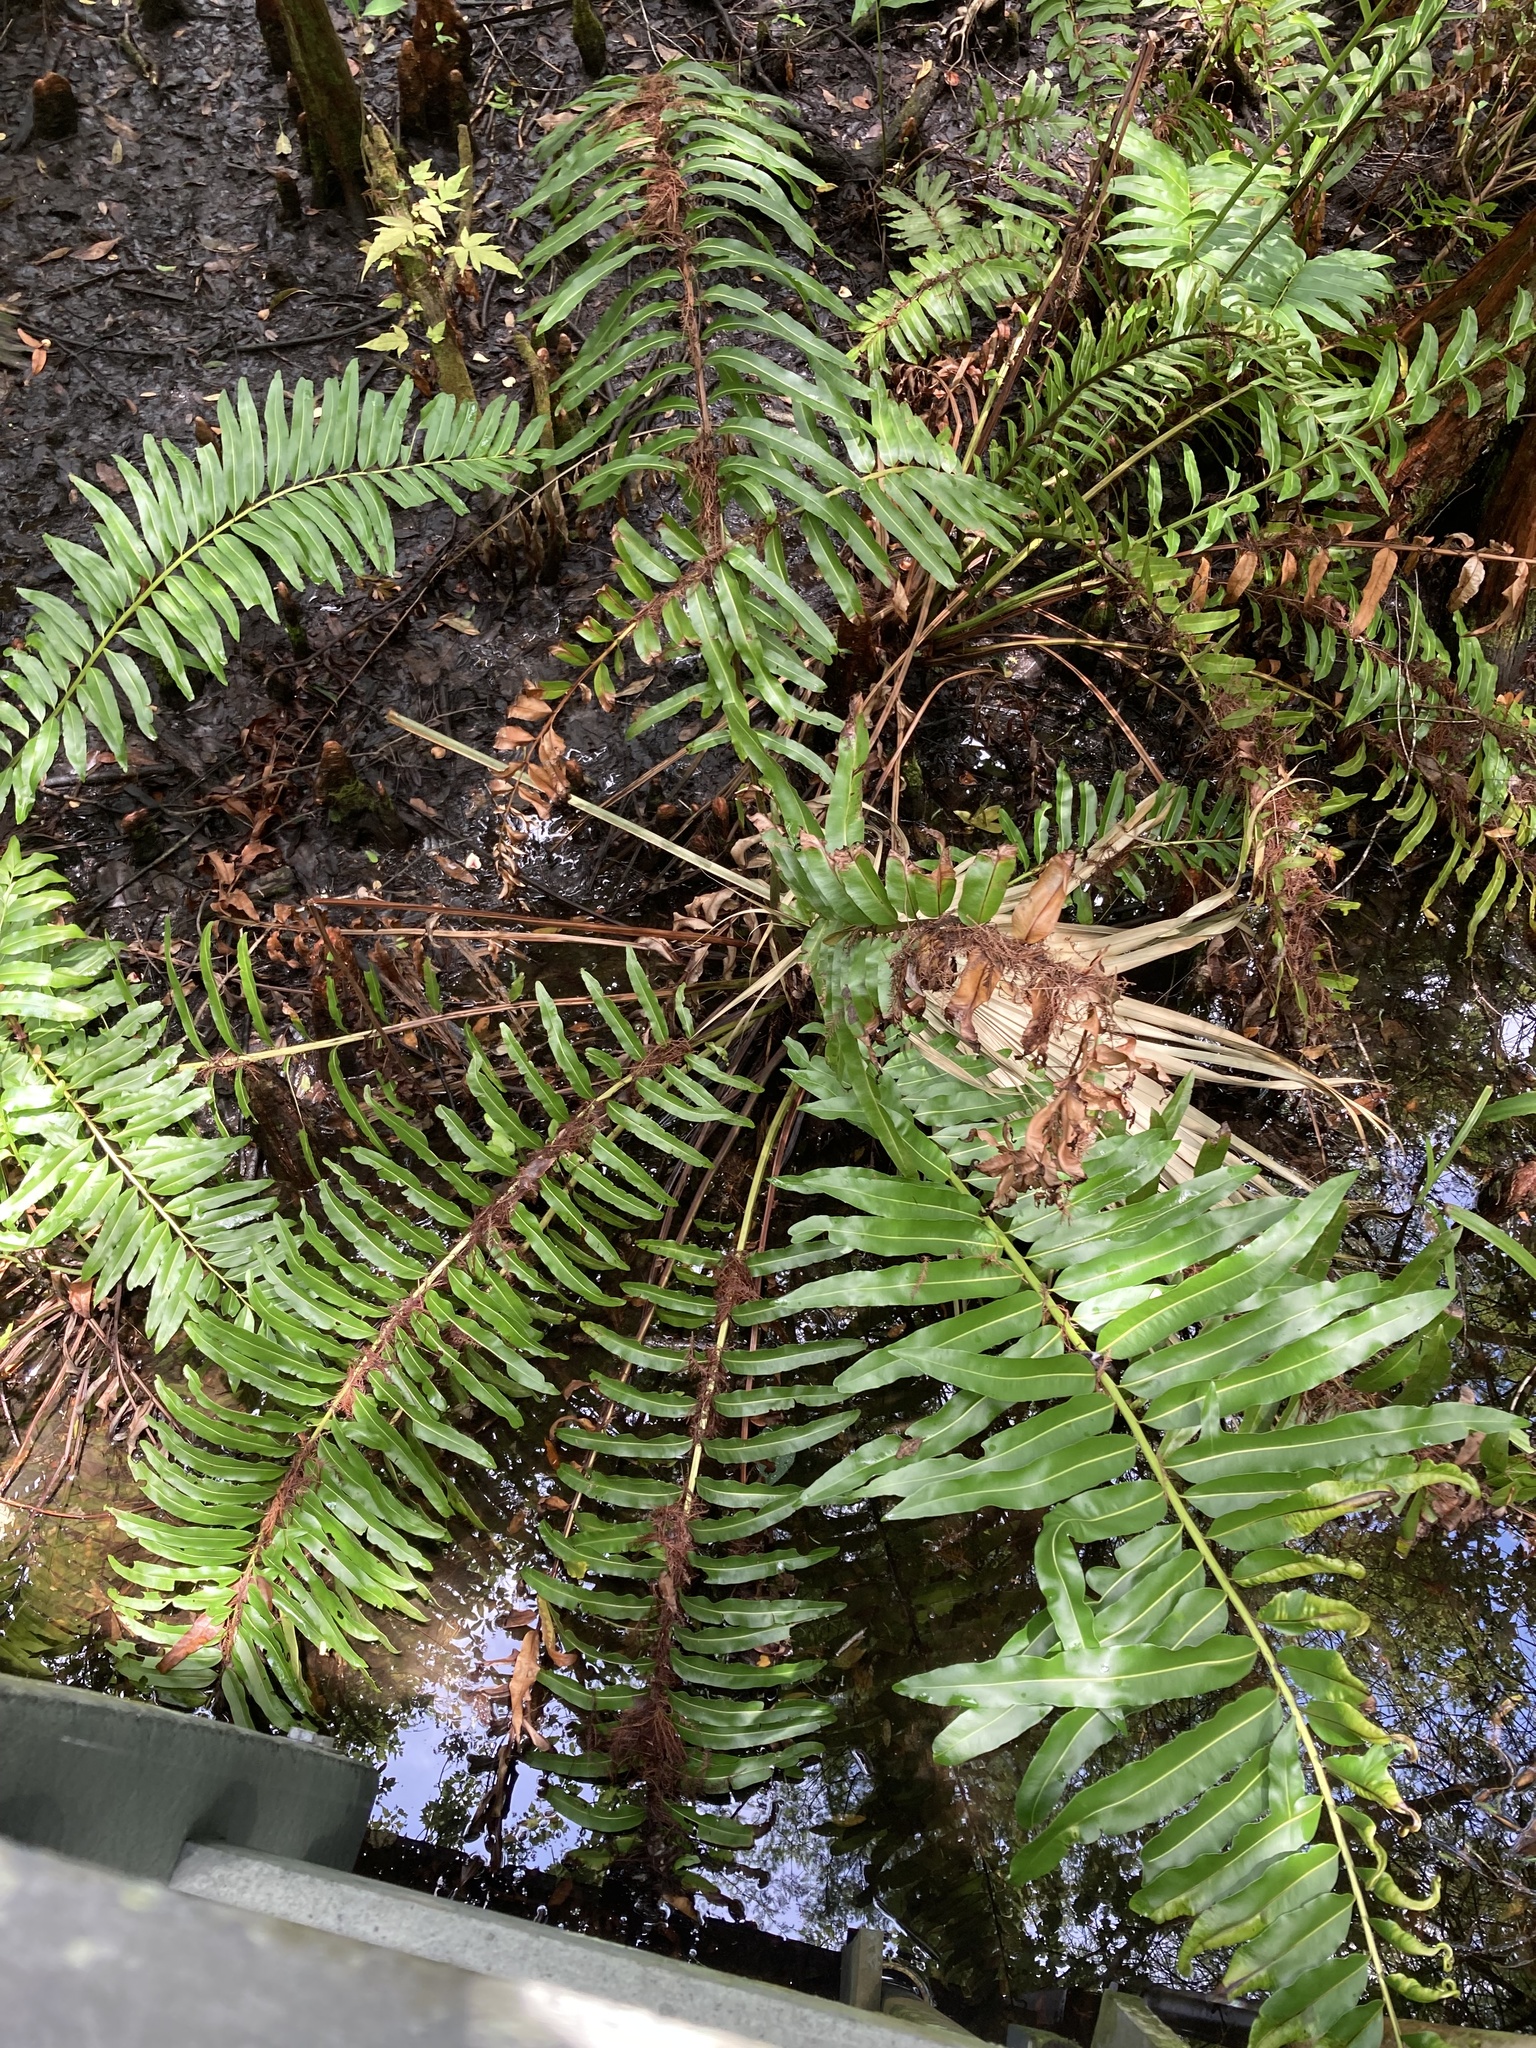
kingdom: Plantae
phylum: Tracheophyta
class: Polypodiopsida
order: Polypodiales
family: Pteridaceae
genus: Acrostichum
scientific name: Acrostichum danaeifolium
